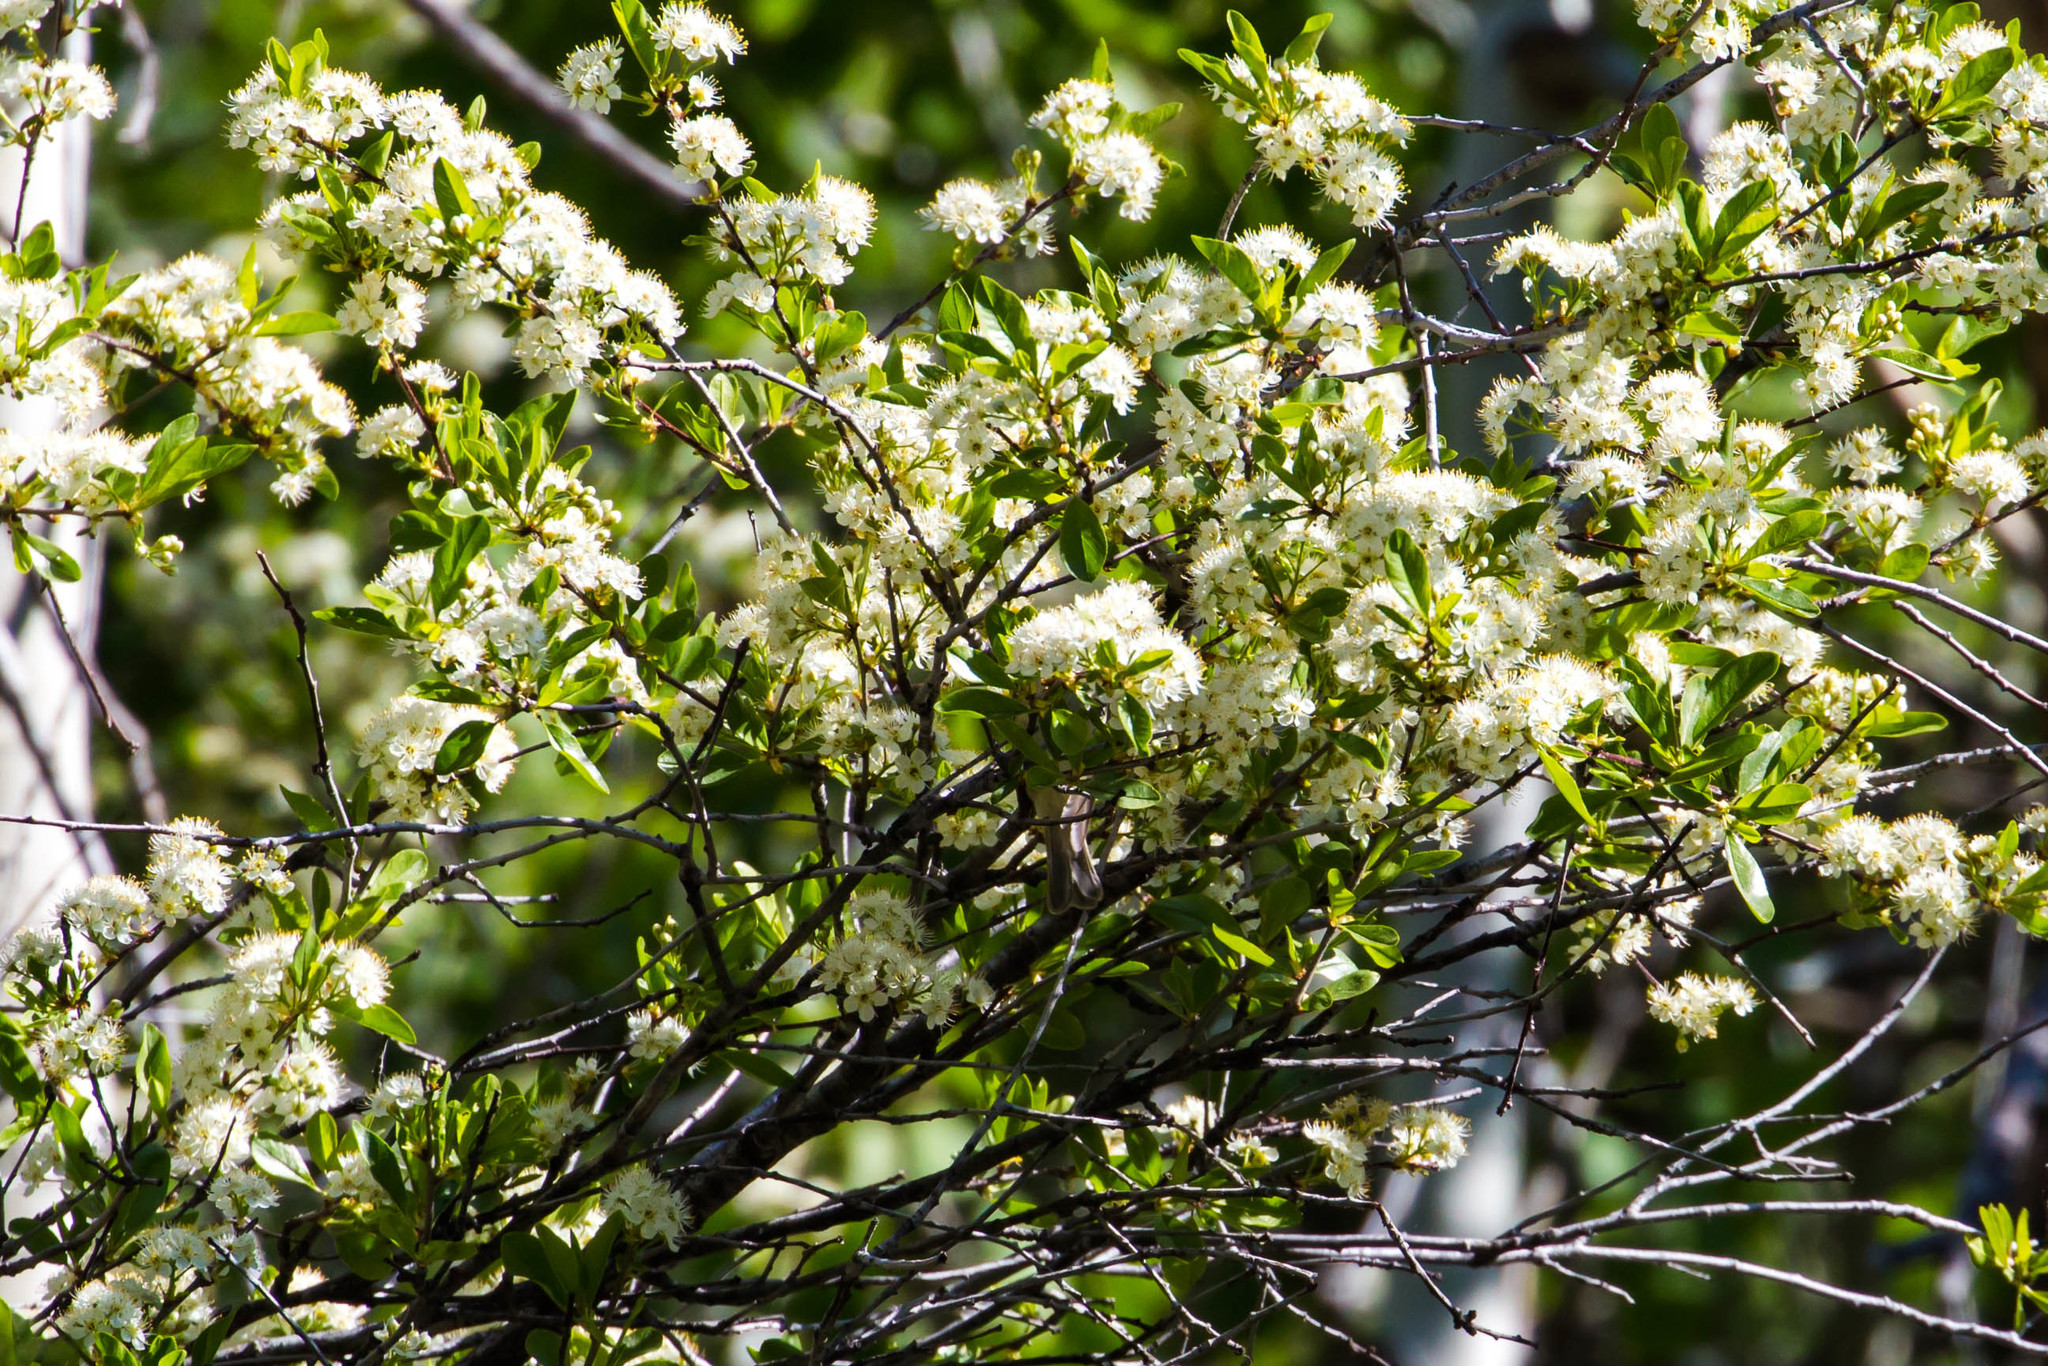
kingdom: Plantae
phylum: Tracheophyta
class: Magnoliopsida
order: Rosales
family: Rosaceae
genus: Prunus
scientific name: Prunus emarginata
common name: Bitter cherry
